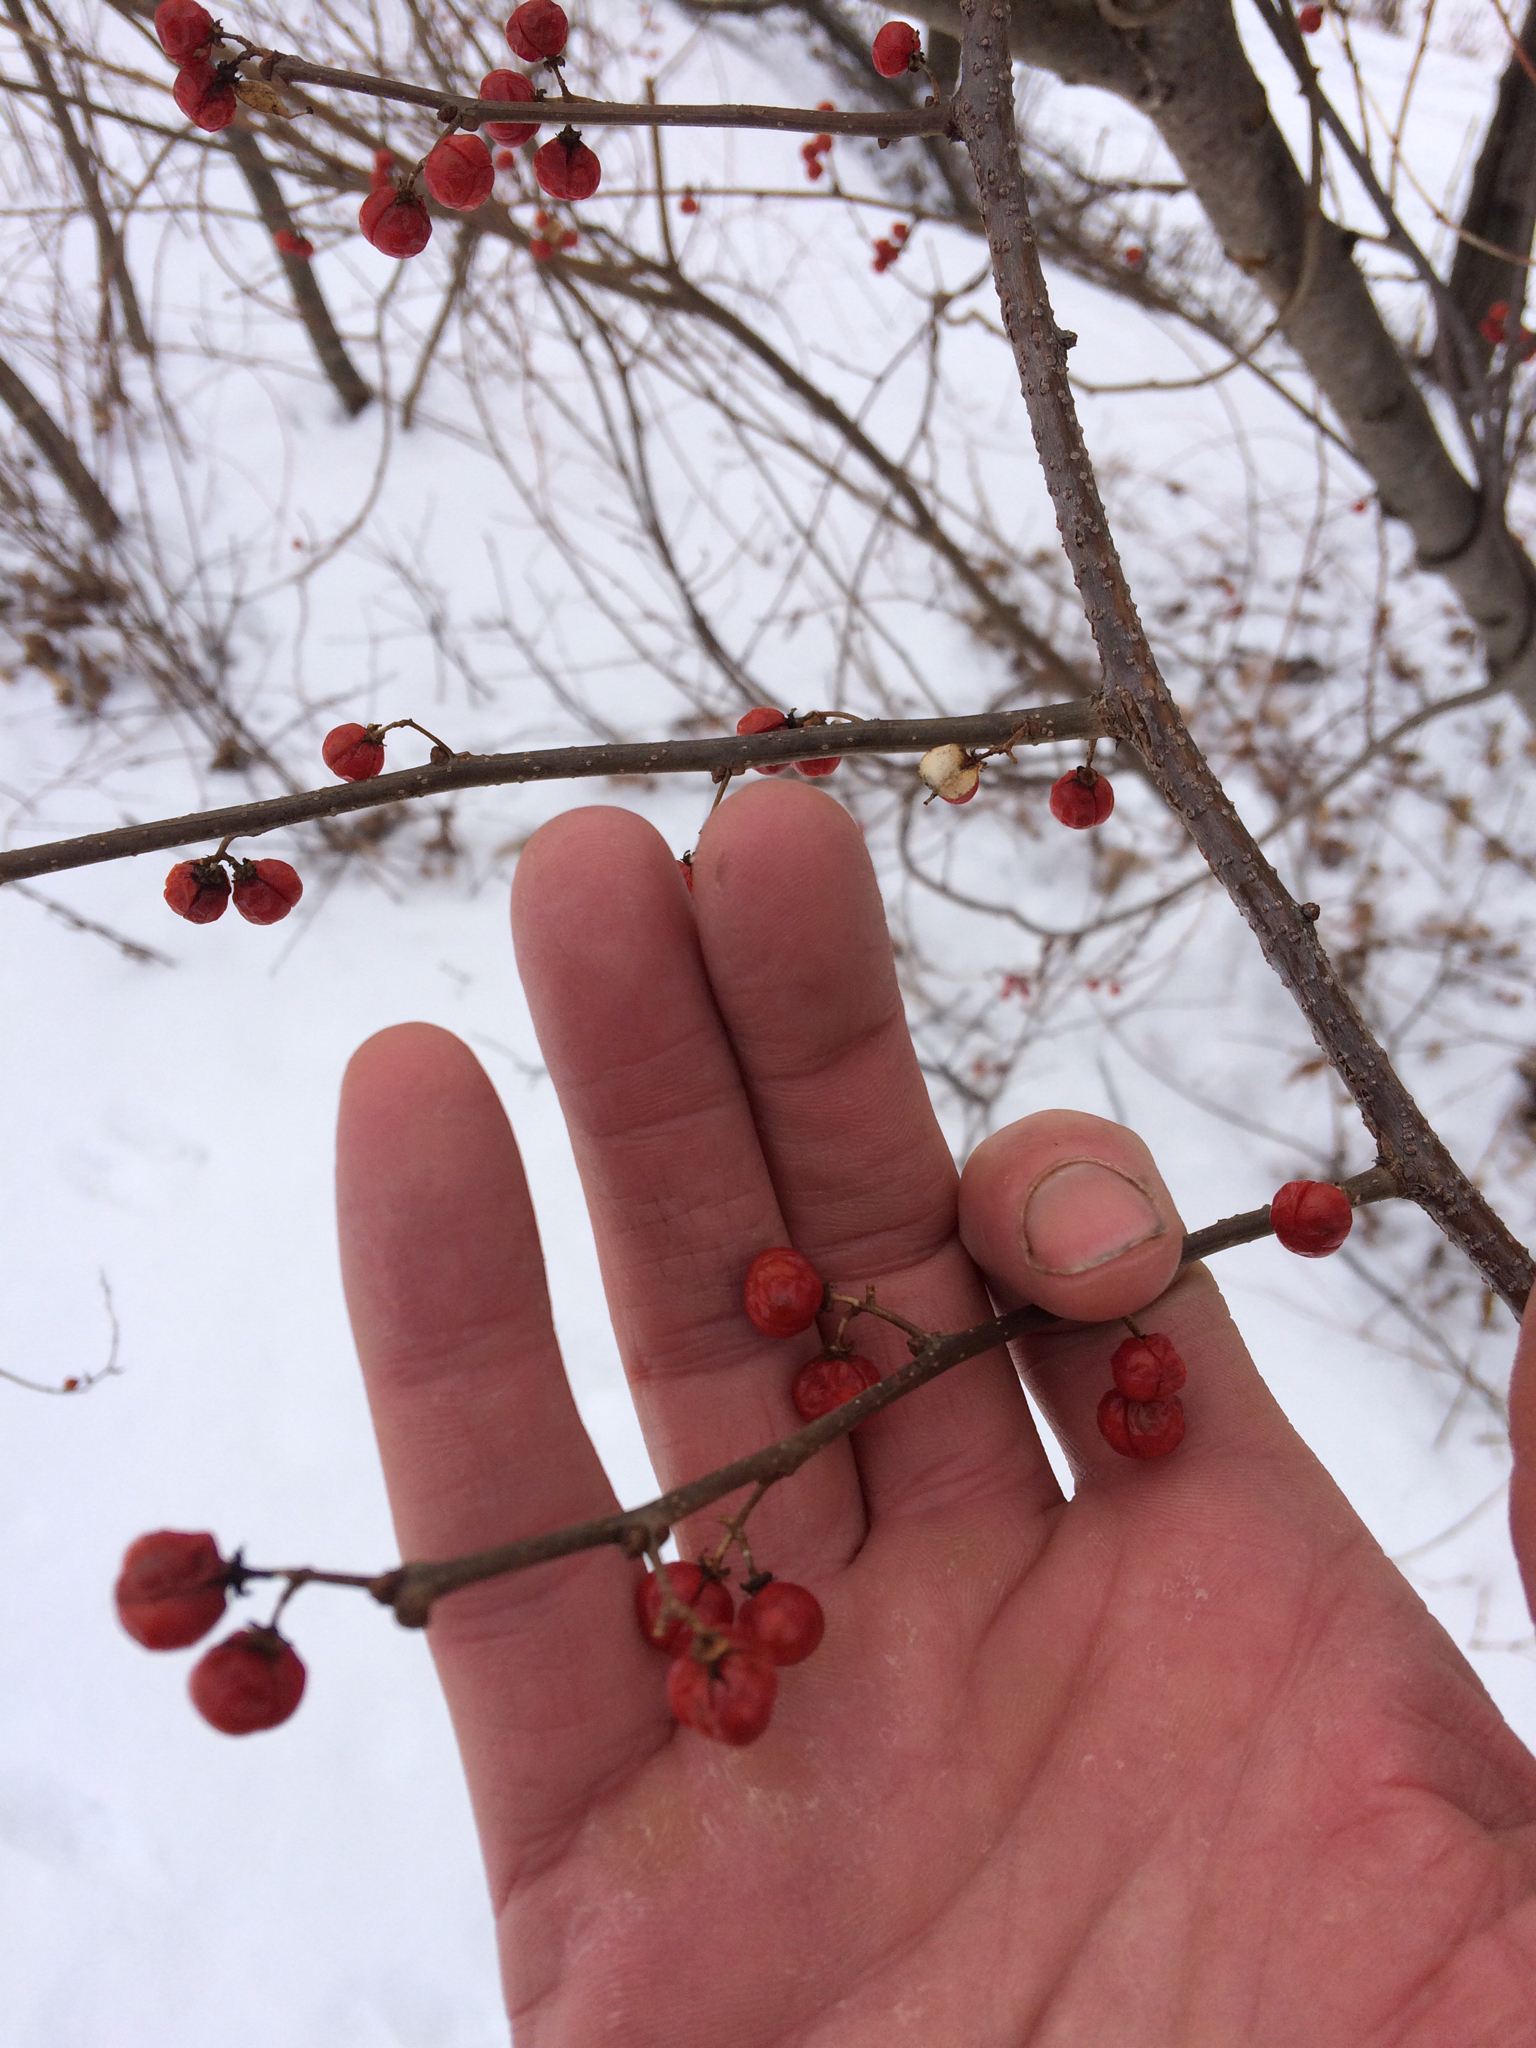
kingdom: Plantae
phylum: Tracheophyta
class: Magnoliopsida
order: Celastrales
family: Celastraceae
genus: Celastrus
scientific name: Celastrus orbiculatus
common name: Oriental bittersweet
